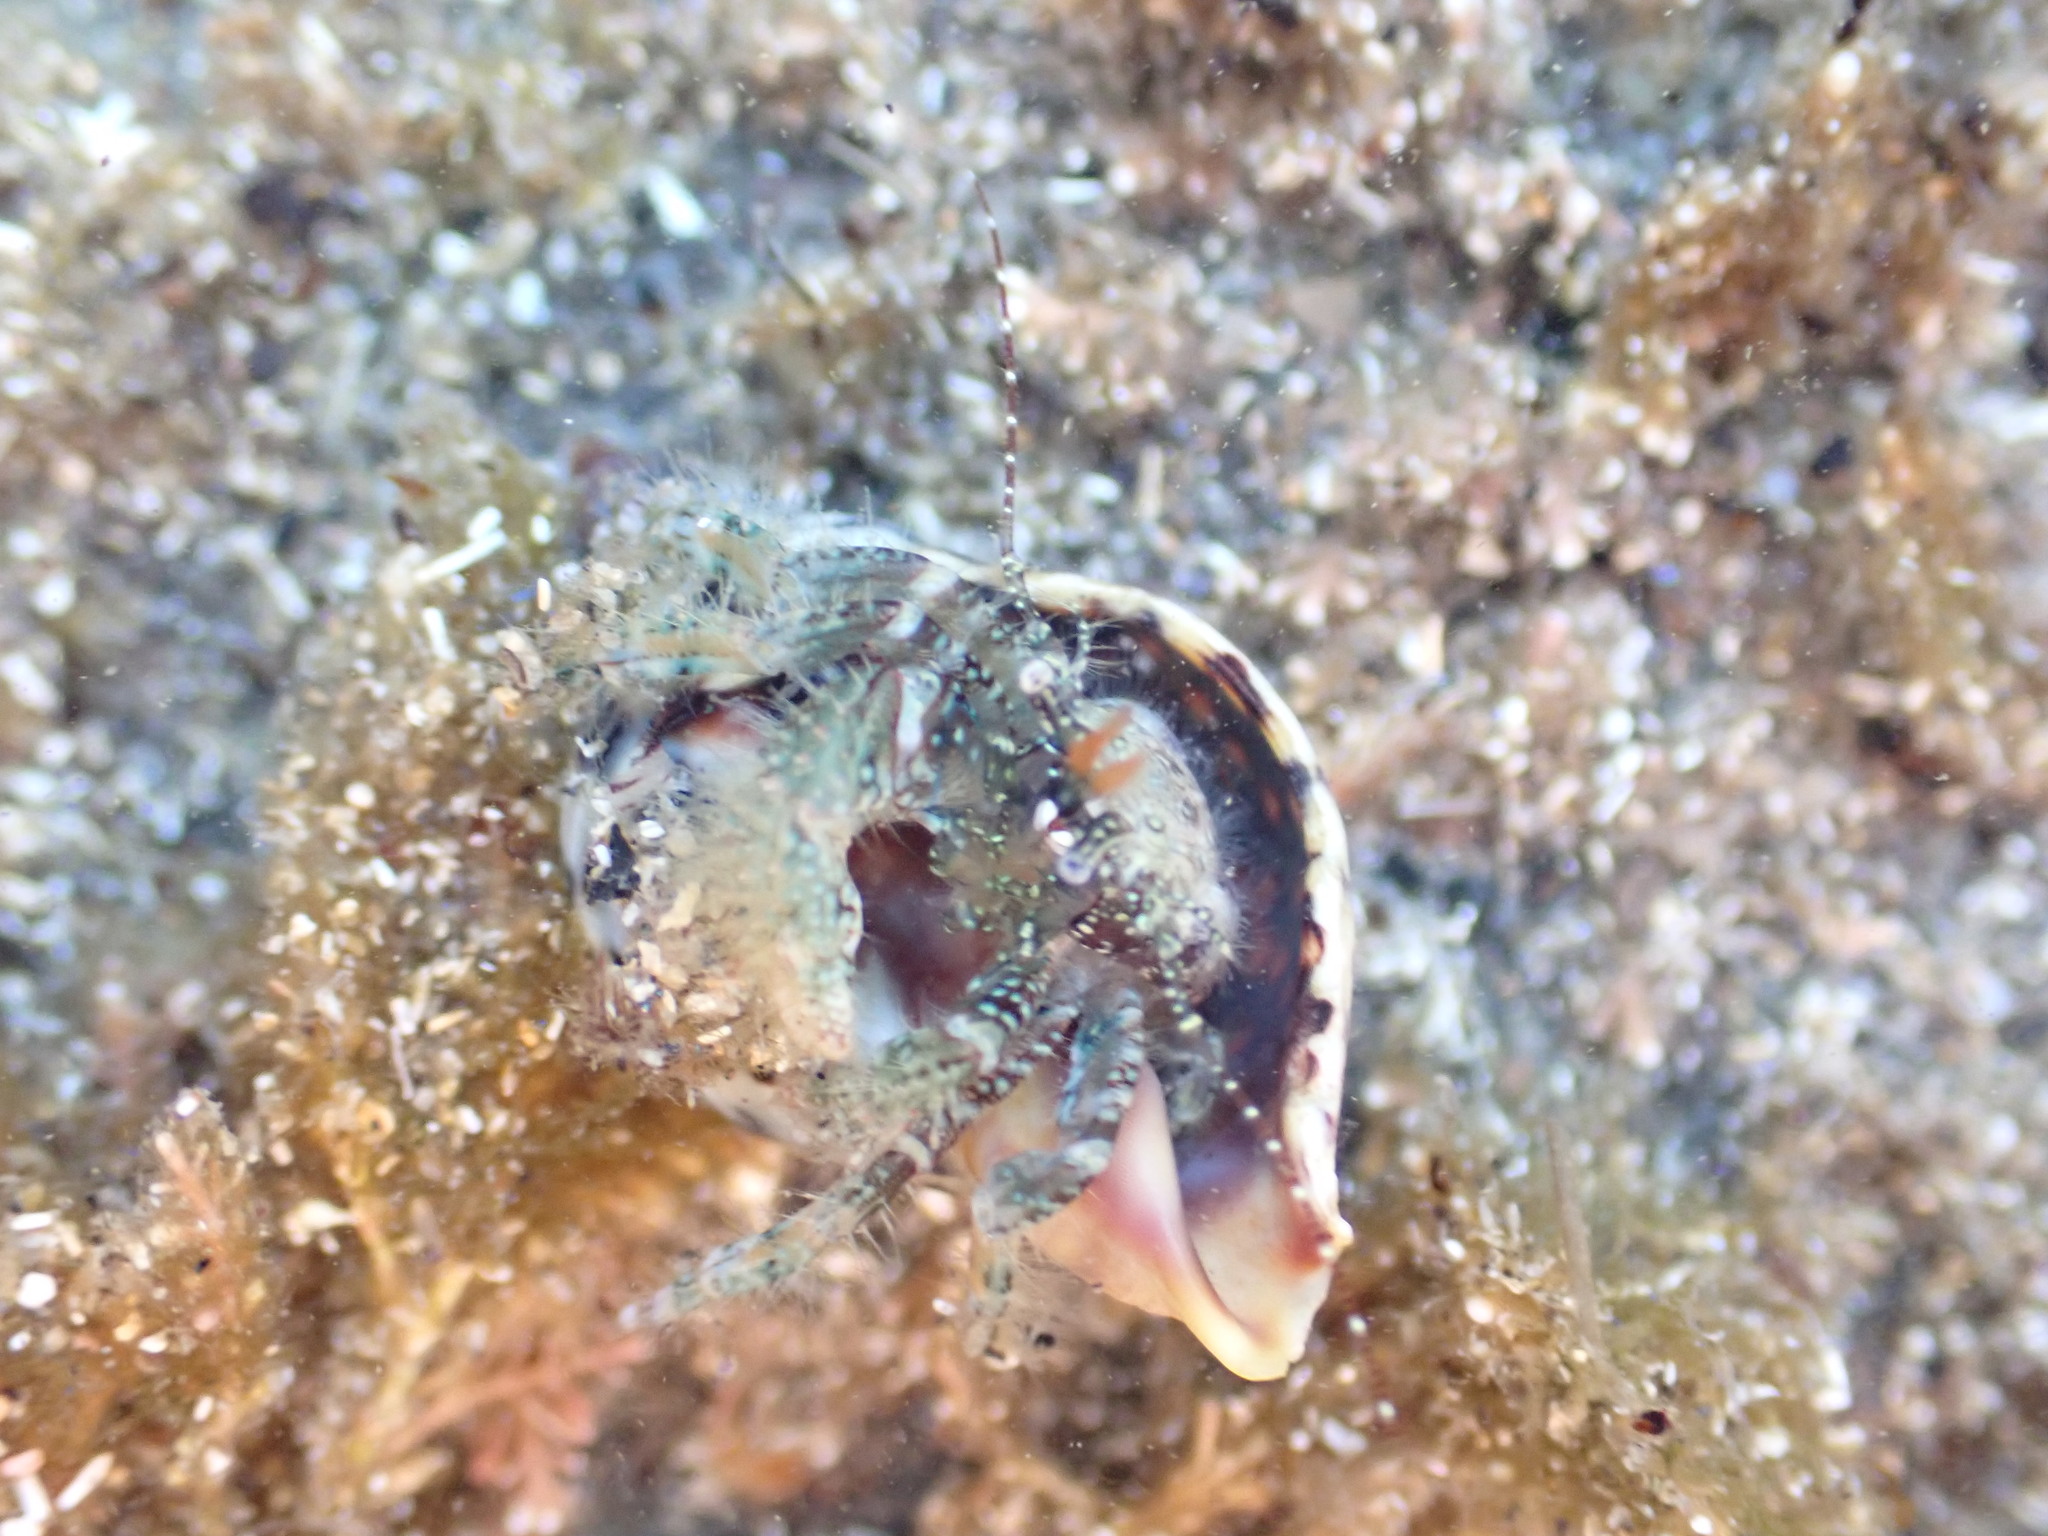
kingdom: Animalia
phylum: Arthropoda
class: Malacostraca
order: Decapoda
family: Paguridae
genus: Pagurus
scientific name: Pagurus traversi
